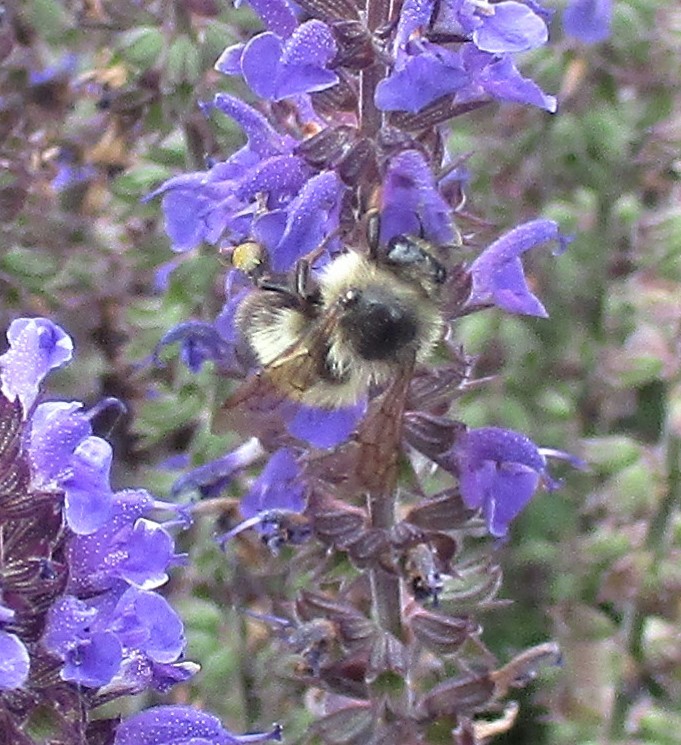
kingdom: Animalia
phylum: Arthropoda
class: Insecta
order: Hymenoptera
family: Apidae
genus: Bombus
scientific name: Bombus mixtus
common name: Fuzzy-horned bumble bee
